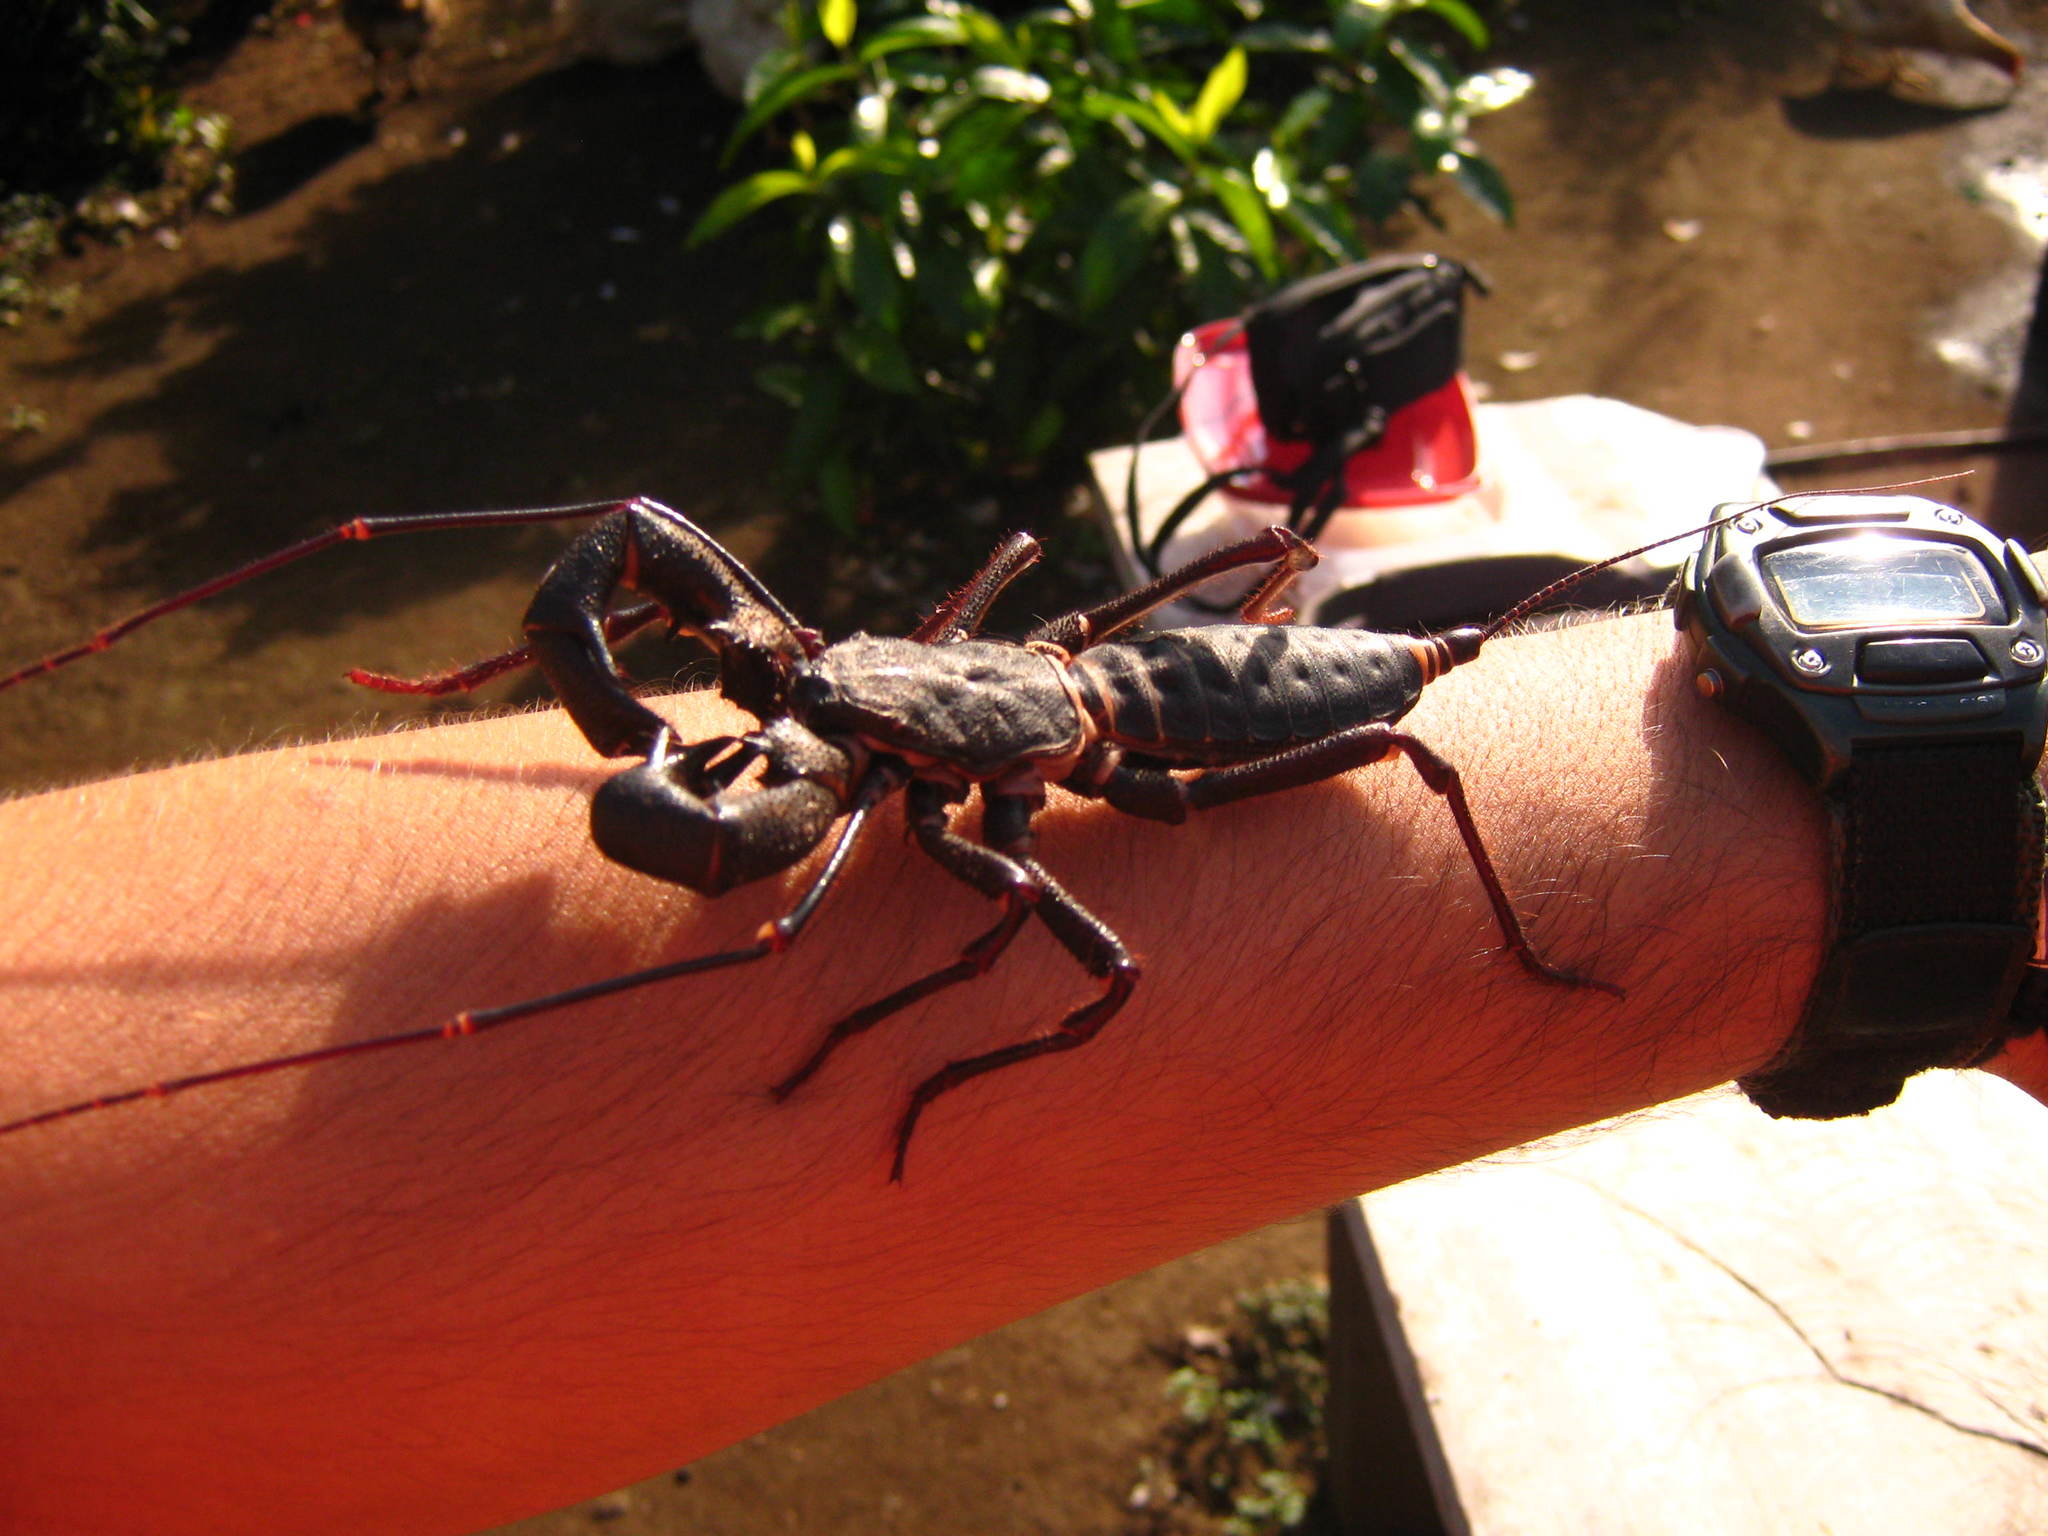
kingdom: Animalia
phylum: Arthropoda
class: Arachnida
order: Uropygi
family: Thelyphonidae
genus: Mastigoproctus
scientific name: Mastigoproctus scabrosus
